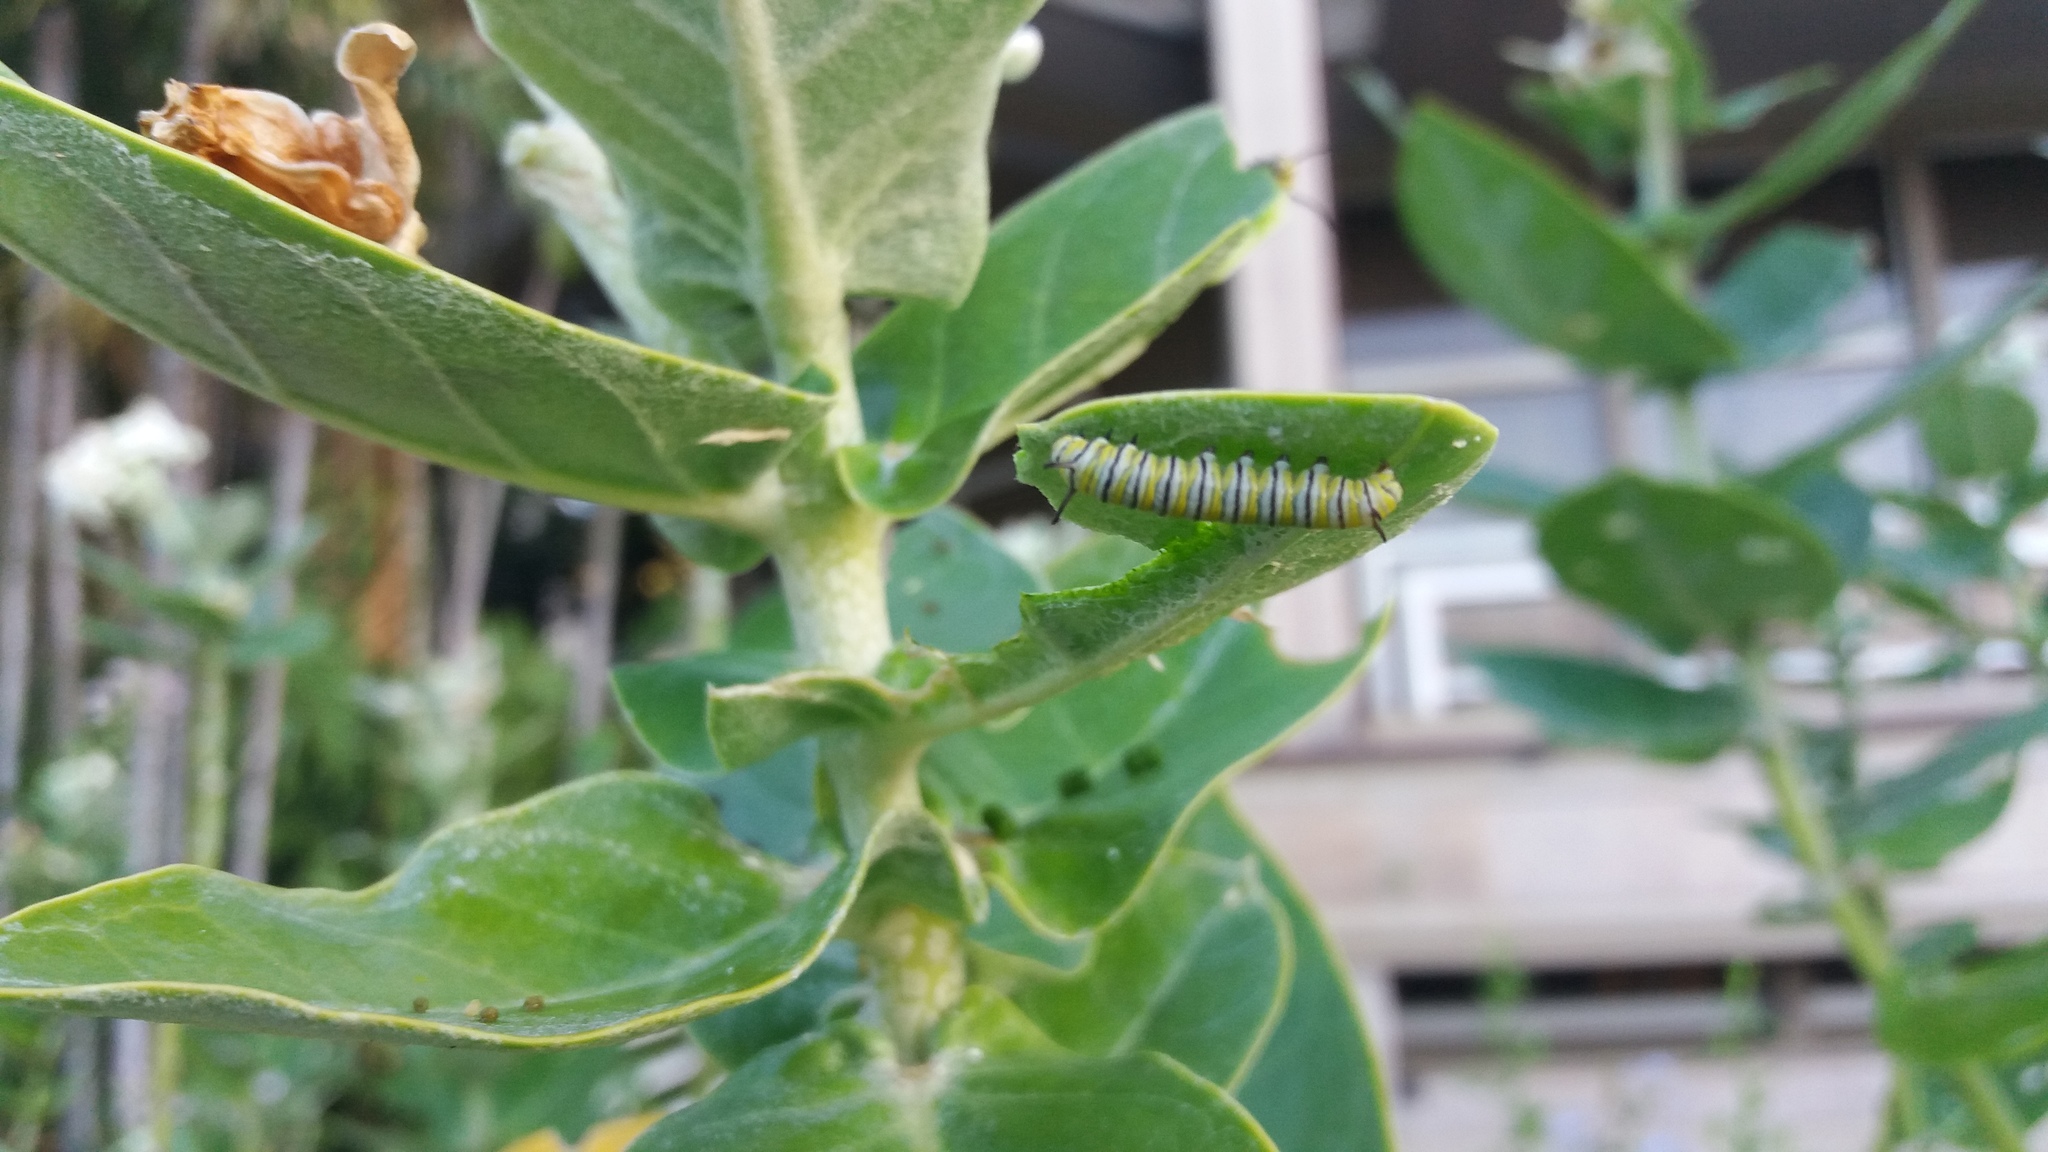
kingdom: Animalia
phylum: Arthropoda
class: Insecta
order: Lepidoptera
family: Nymphalidae
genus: Danaus
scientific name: Danaus plexippus
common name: Monarch
